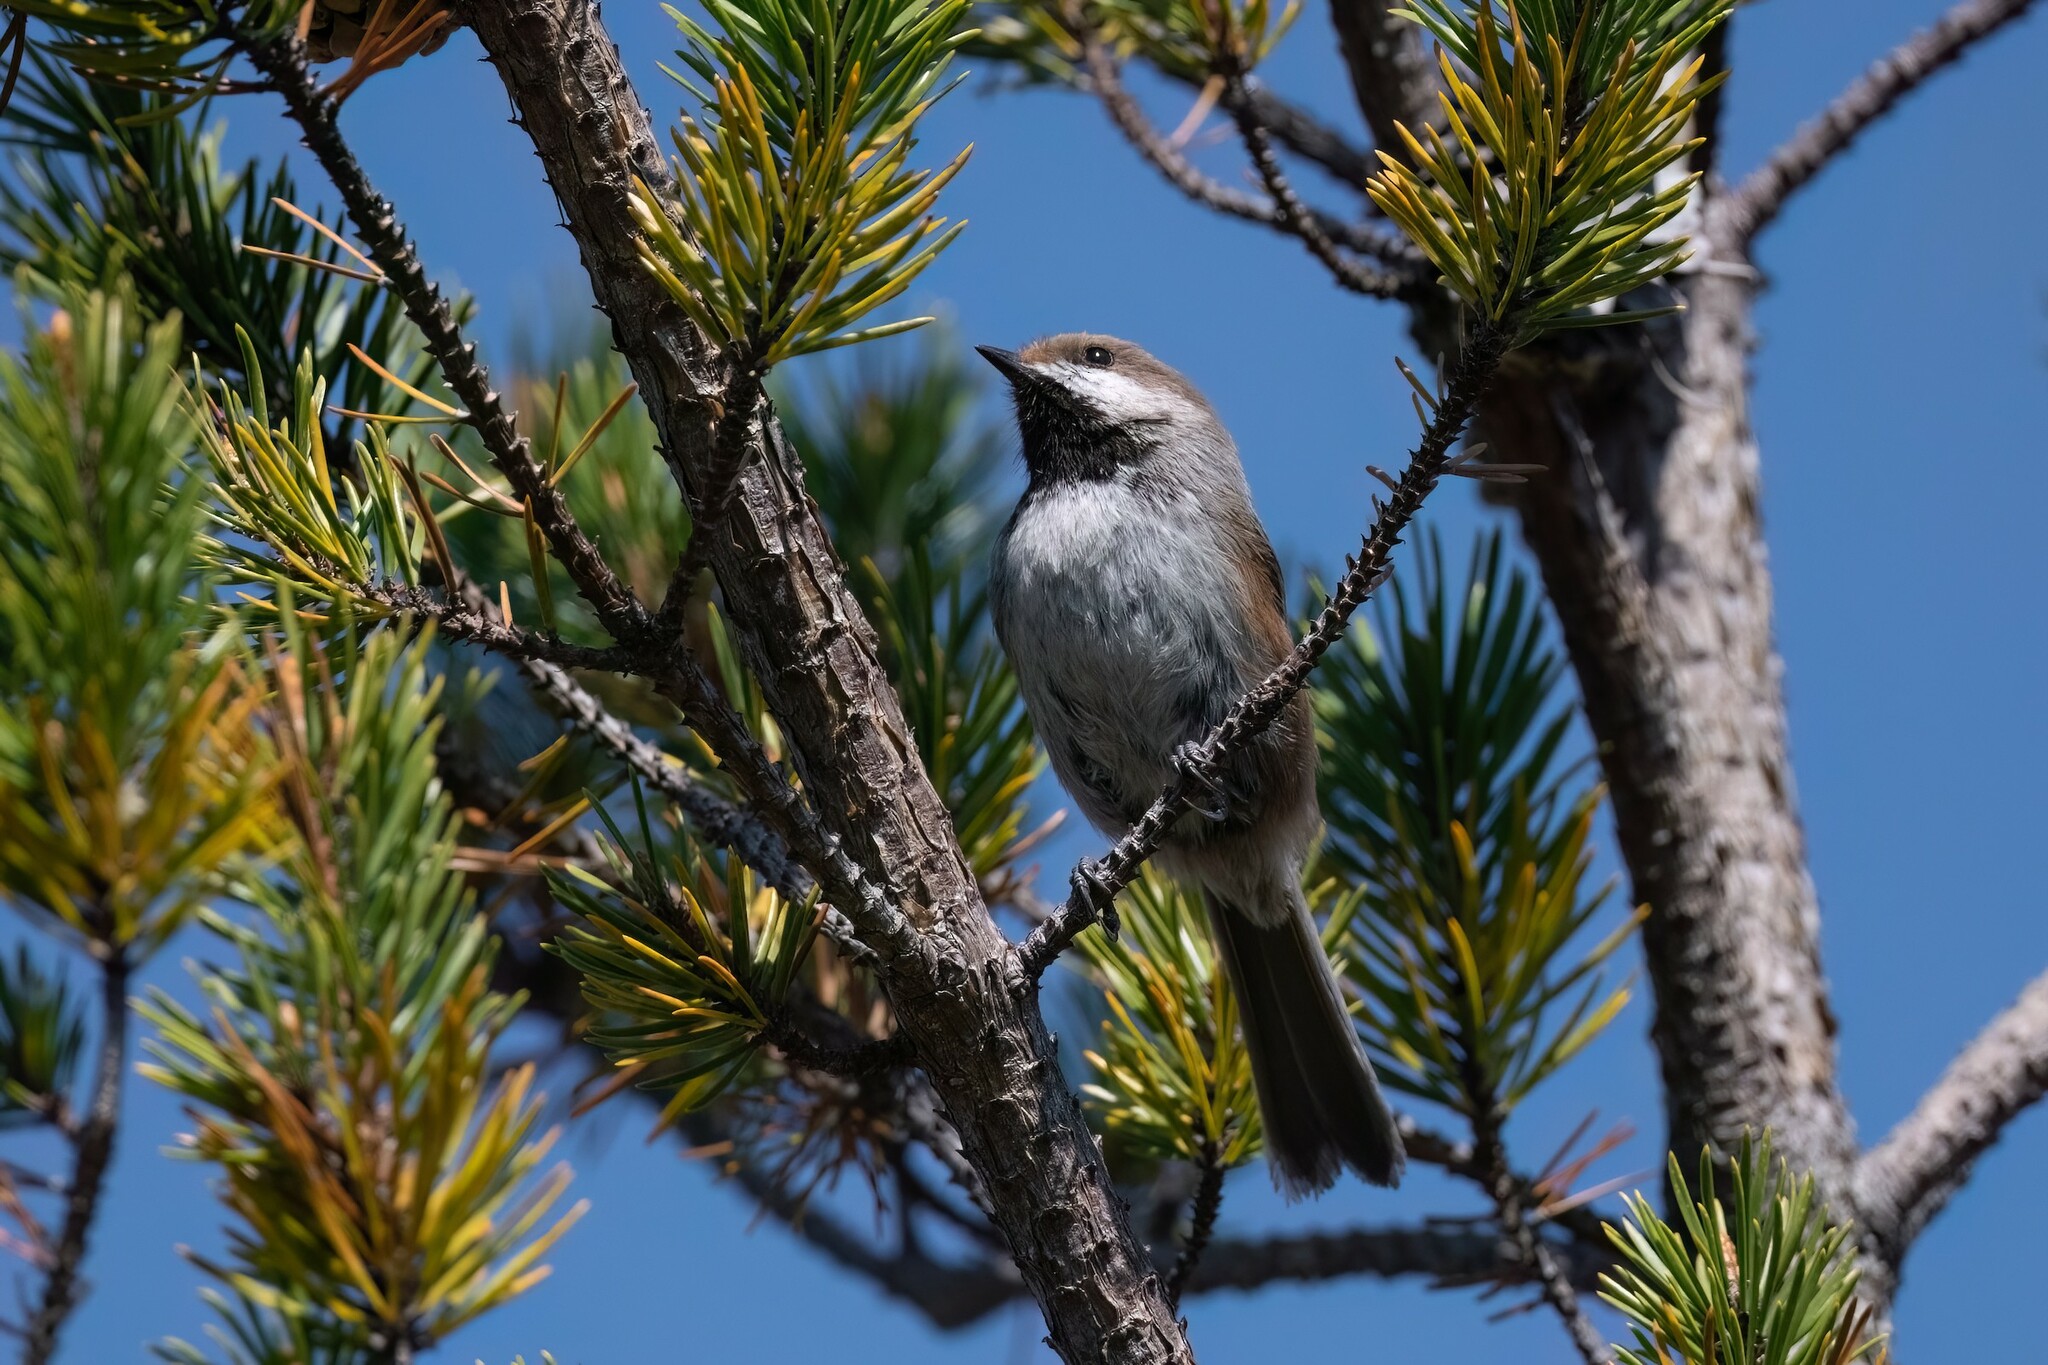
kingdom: Animalia
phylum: Chordata
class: Aves
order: Passeriformes
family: Paridae
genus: Poecile
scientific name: Poecile hudsonicus
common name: Boreal chickadee
